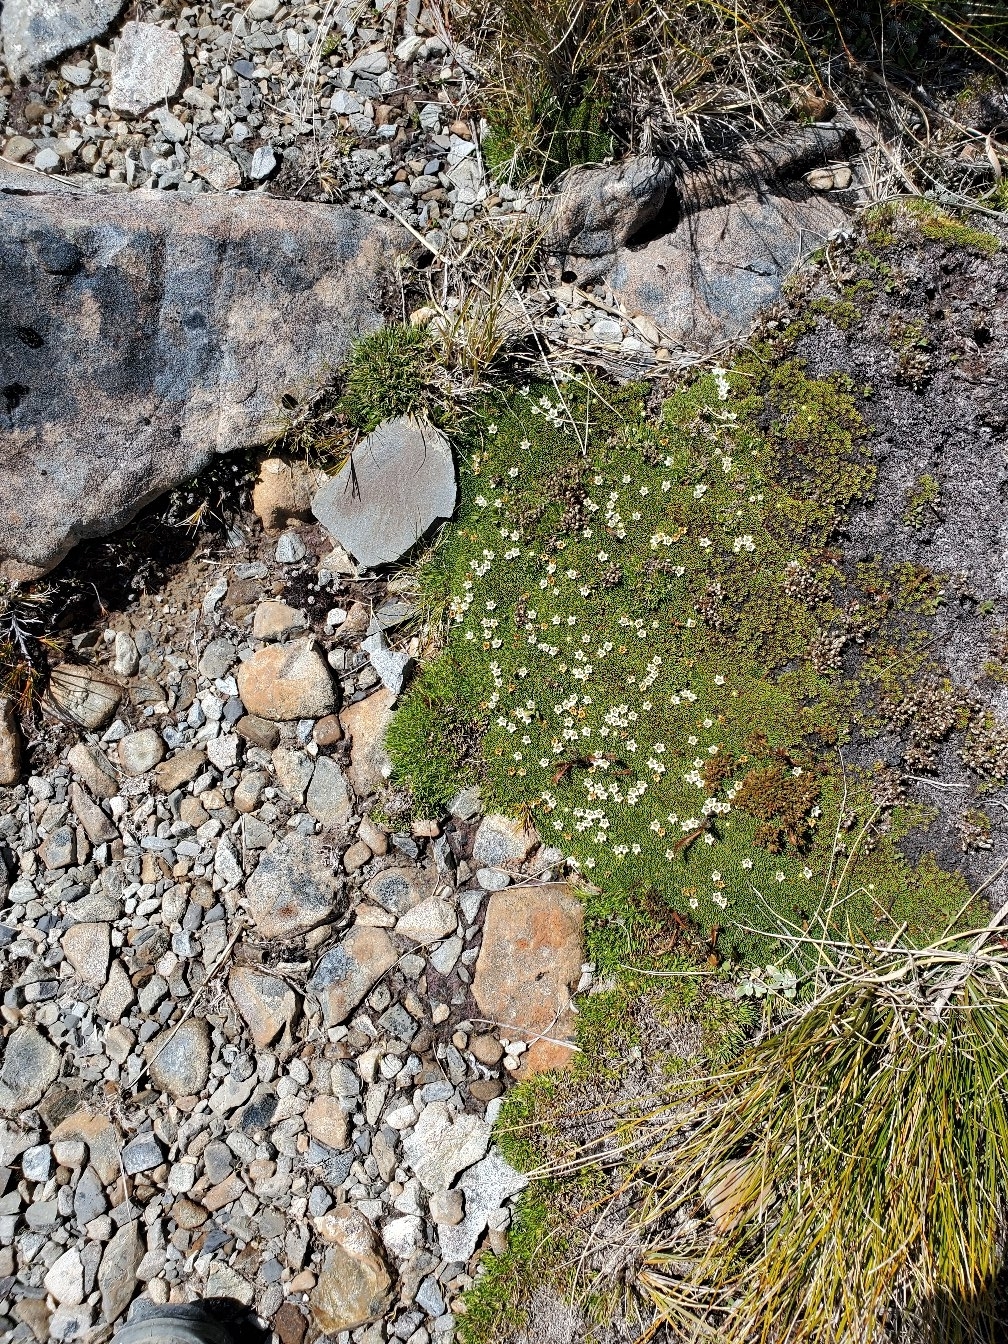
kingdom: Plantae
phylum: Tracheophyta
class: Magnoliopsida
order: Asterales
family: Stylidiaceae
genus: Donatia
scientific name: Donatia novae-zelandiae
